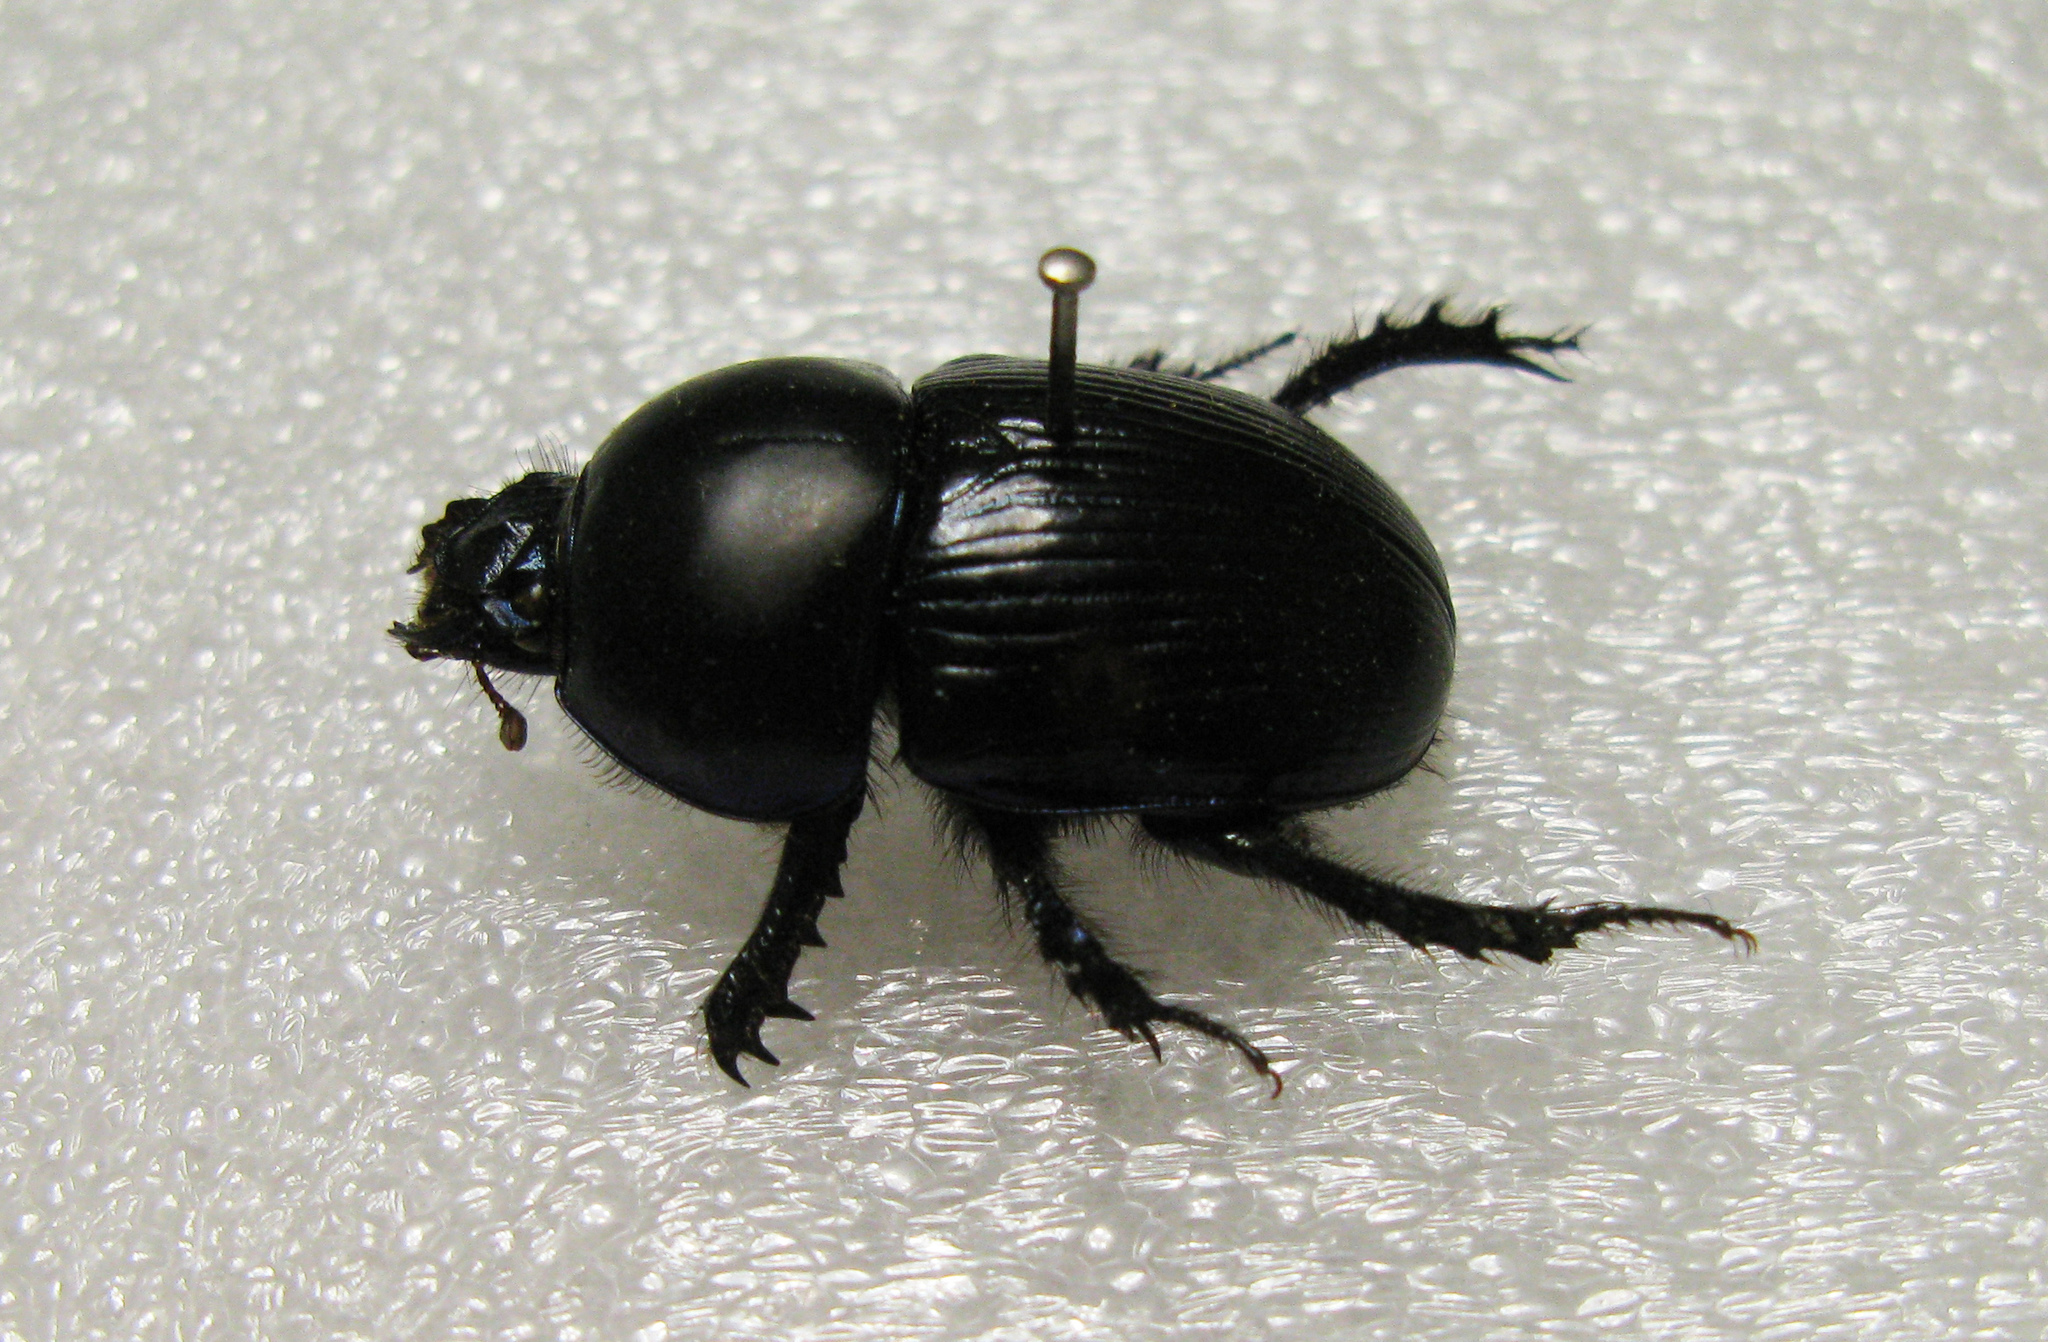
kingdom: Animalia
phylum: Arthropoda
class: Insecta
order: Coleoptera
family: Geotrupidae
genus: Geotrupes
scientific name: Geotrupes spiniger
